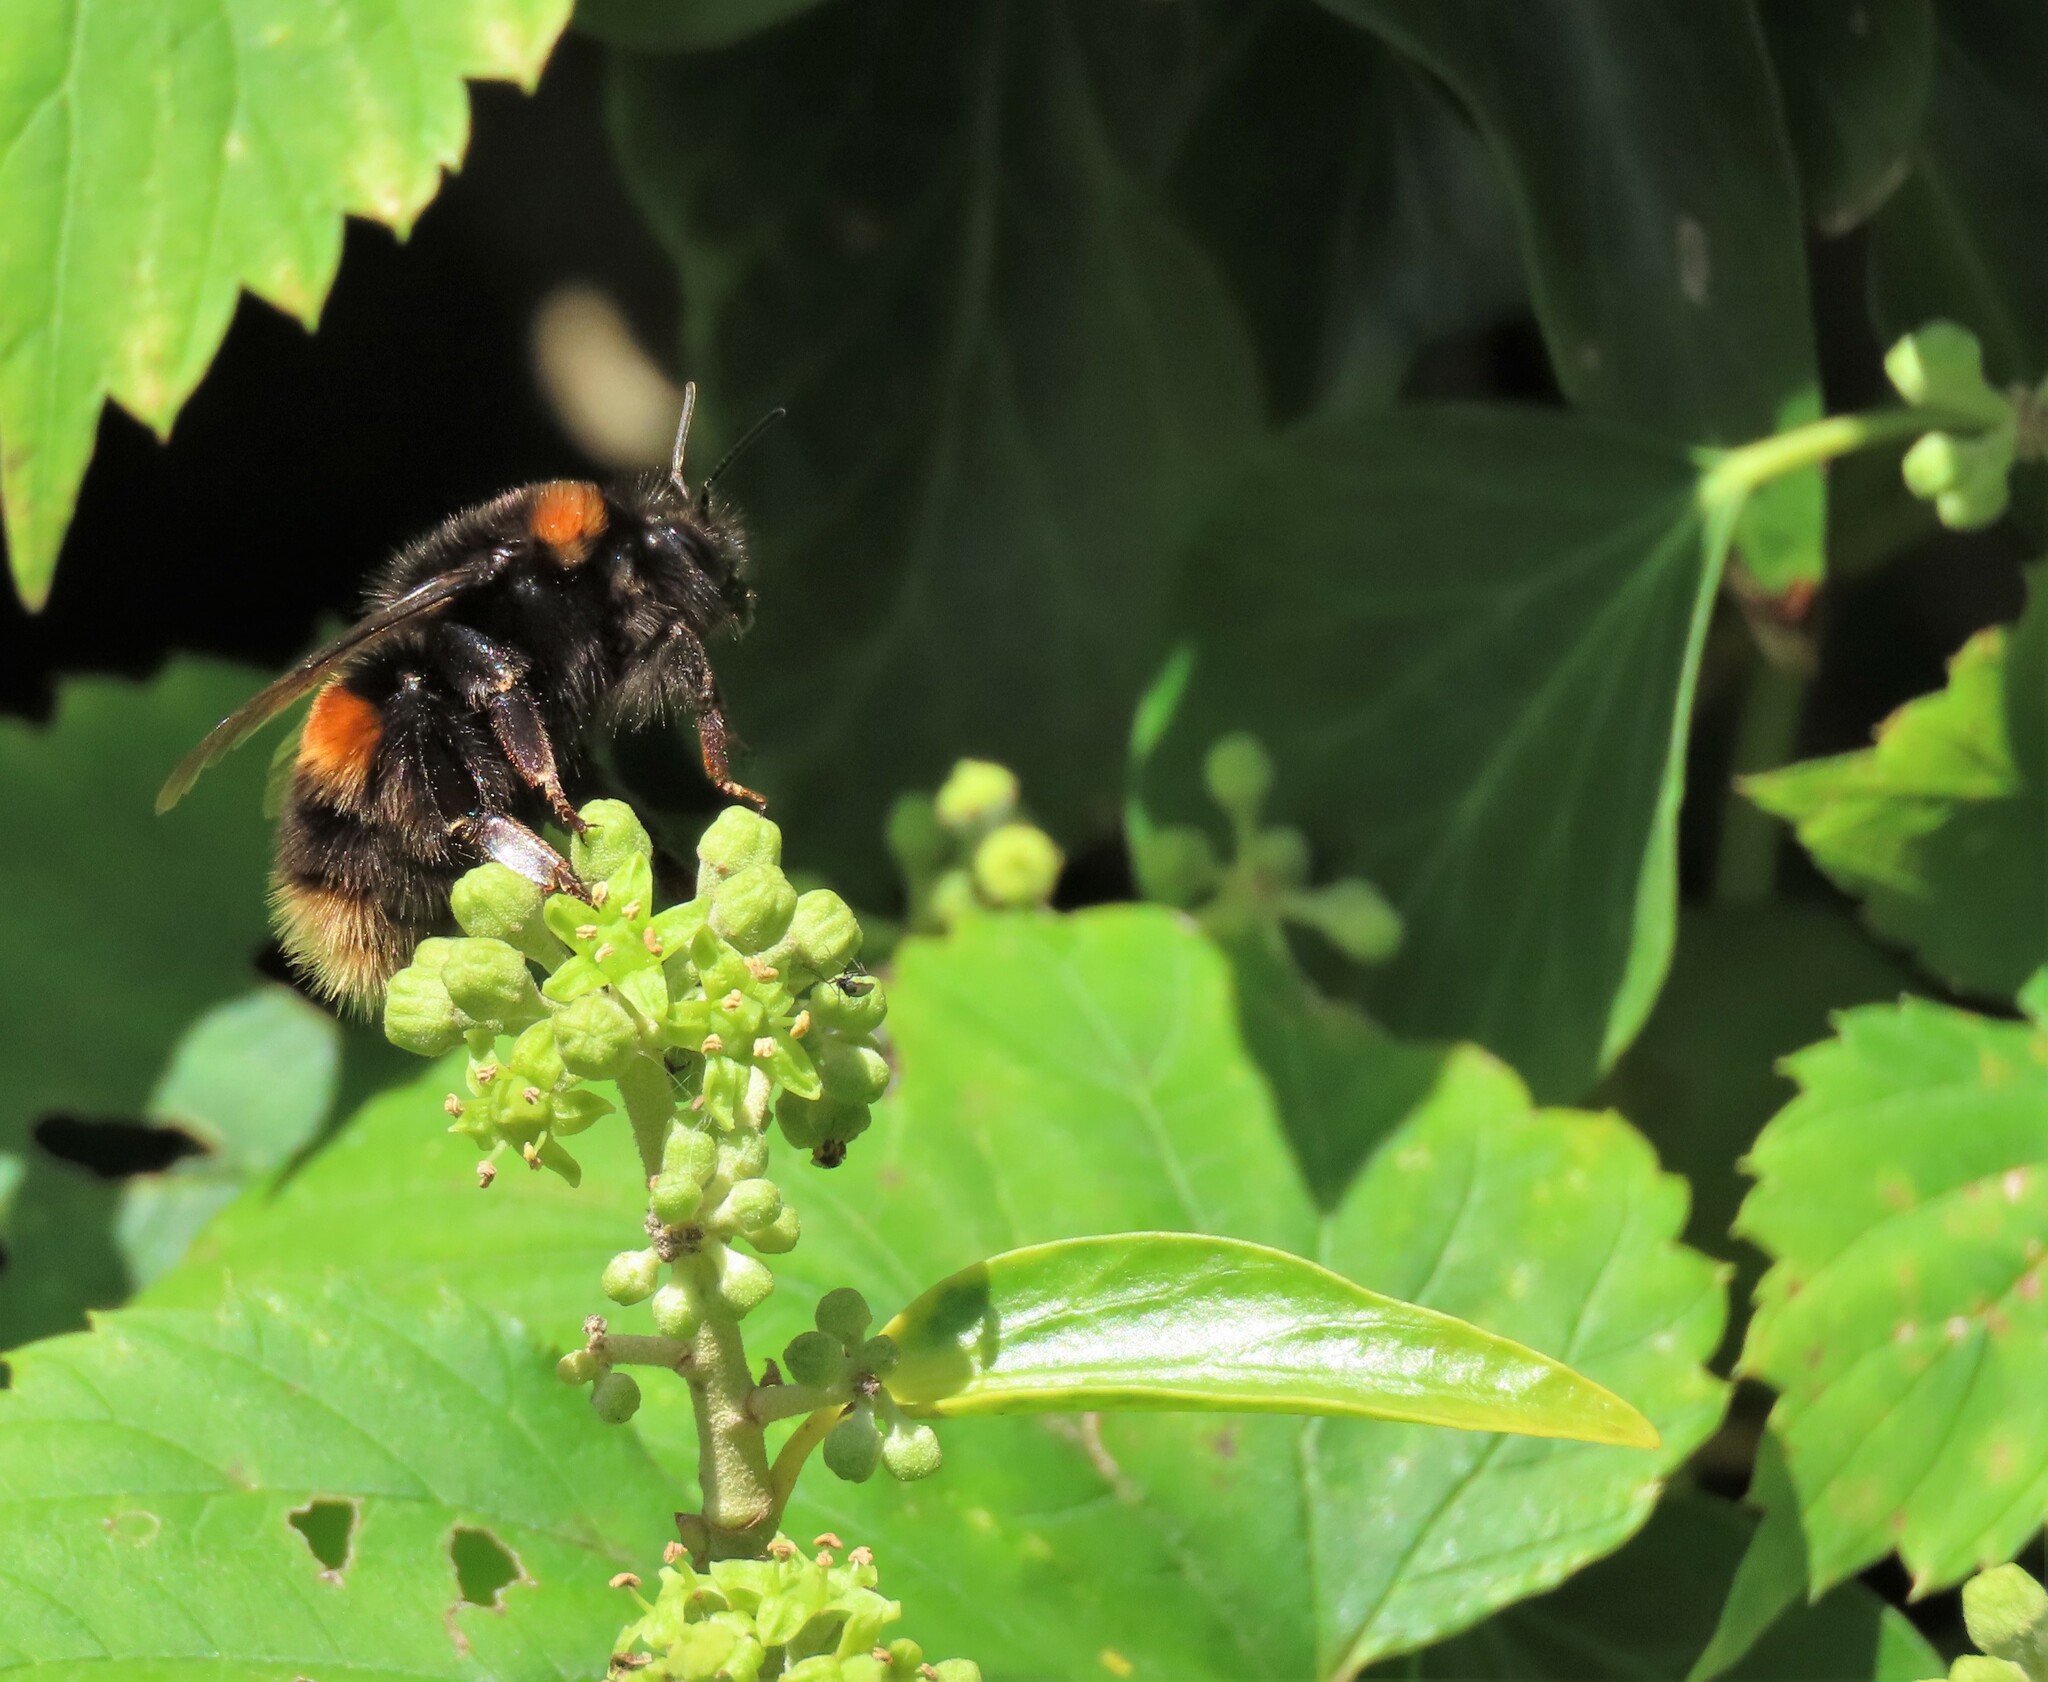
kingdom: Animalia
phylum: Arthropoda
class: Insecta
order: Hymenoptera
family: Apidae
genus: Bombus
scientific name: Bombus terrestris
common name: Buff-tailed bumblebee
